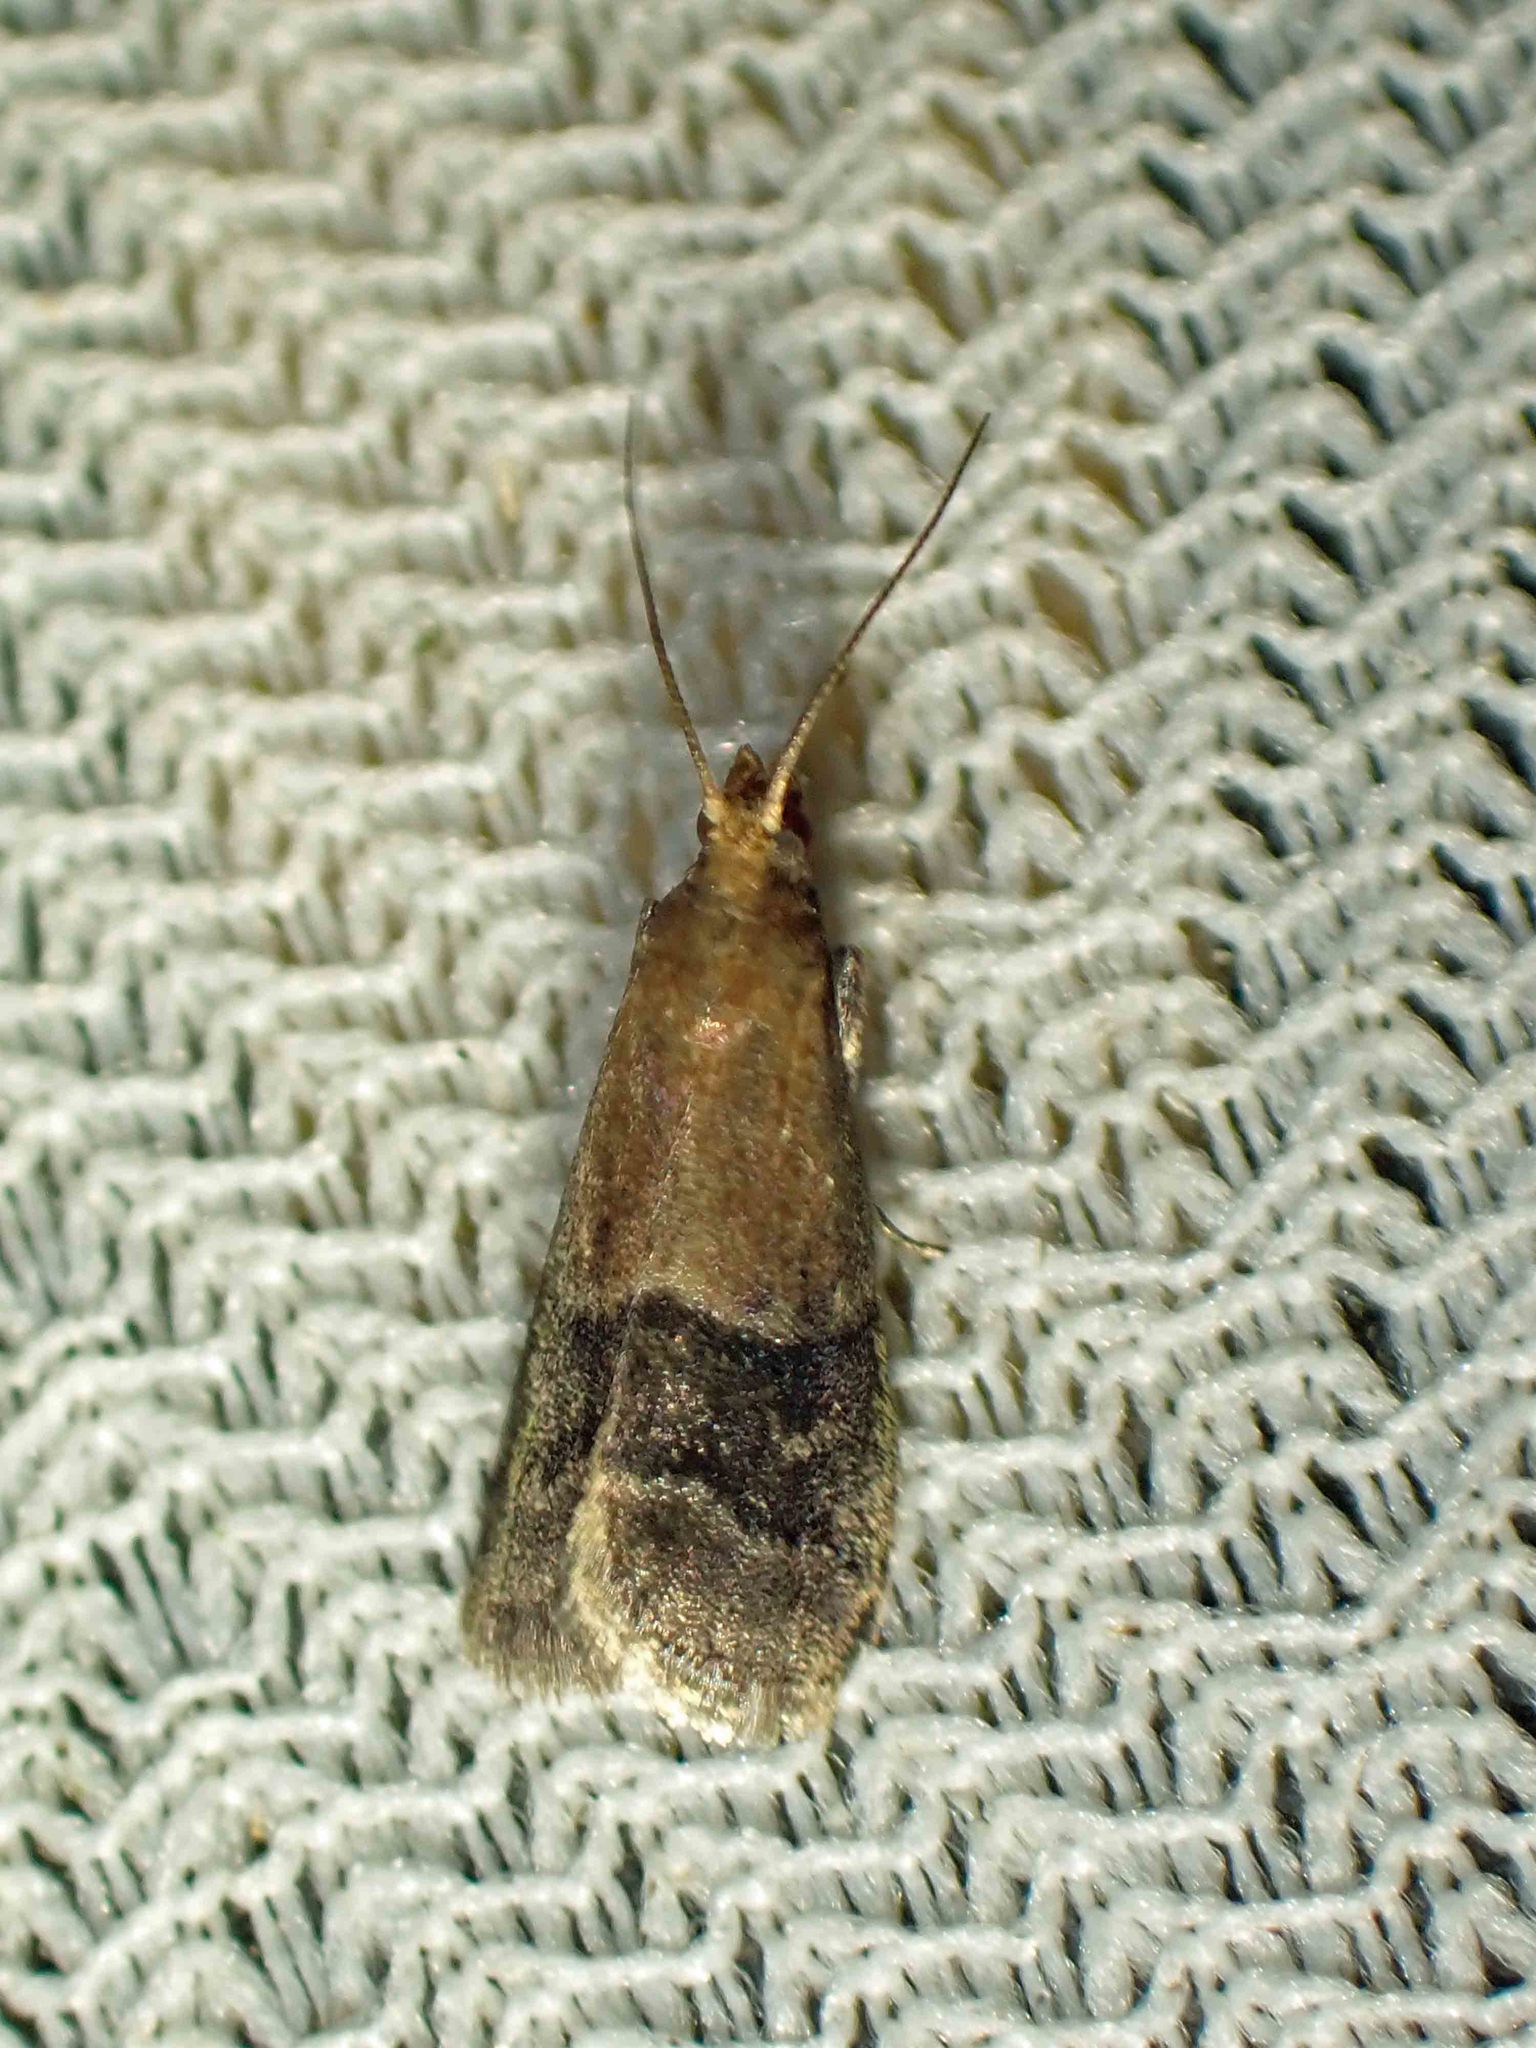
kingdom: Animalia
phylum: Arthropoda
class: Insecta
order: Lepidoptera
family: Pyralidae
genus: Eulogia
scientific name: Eulogia ochrifrontella
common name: Broad-banded eulogia moth
